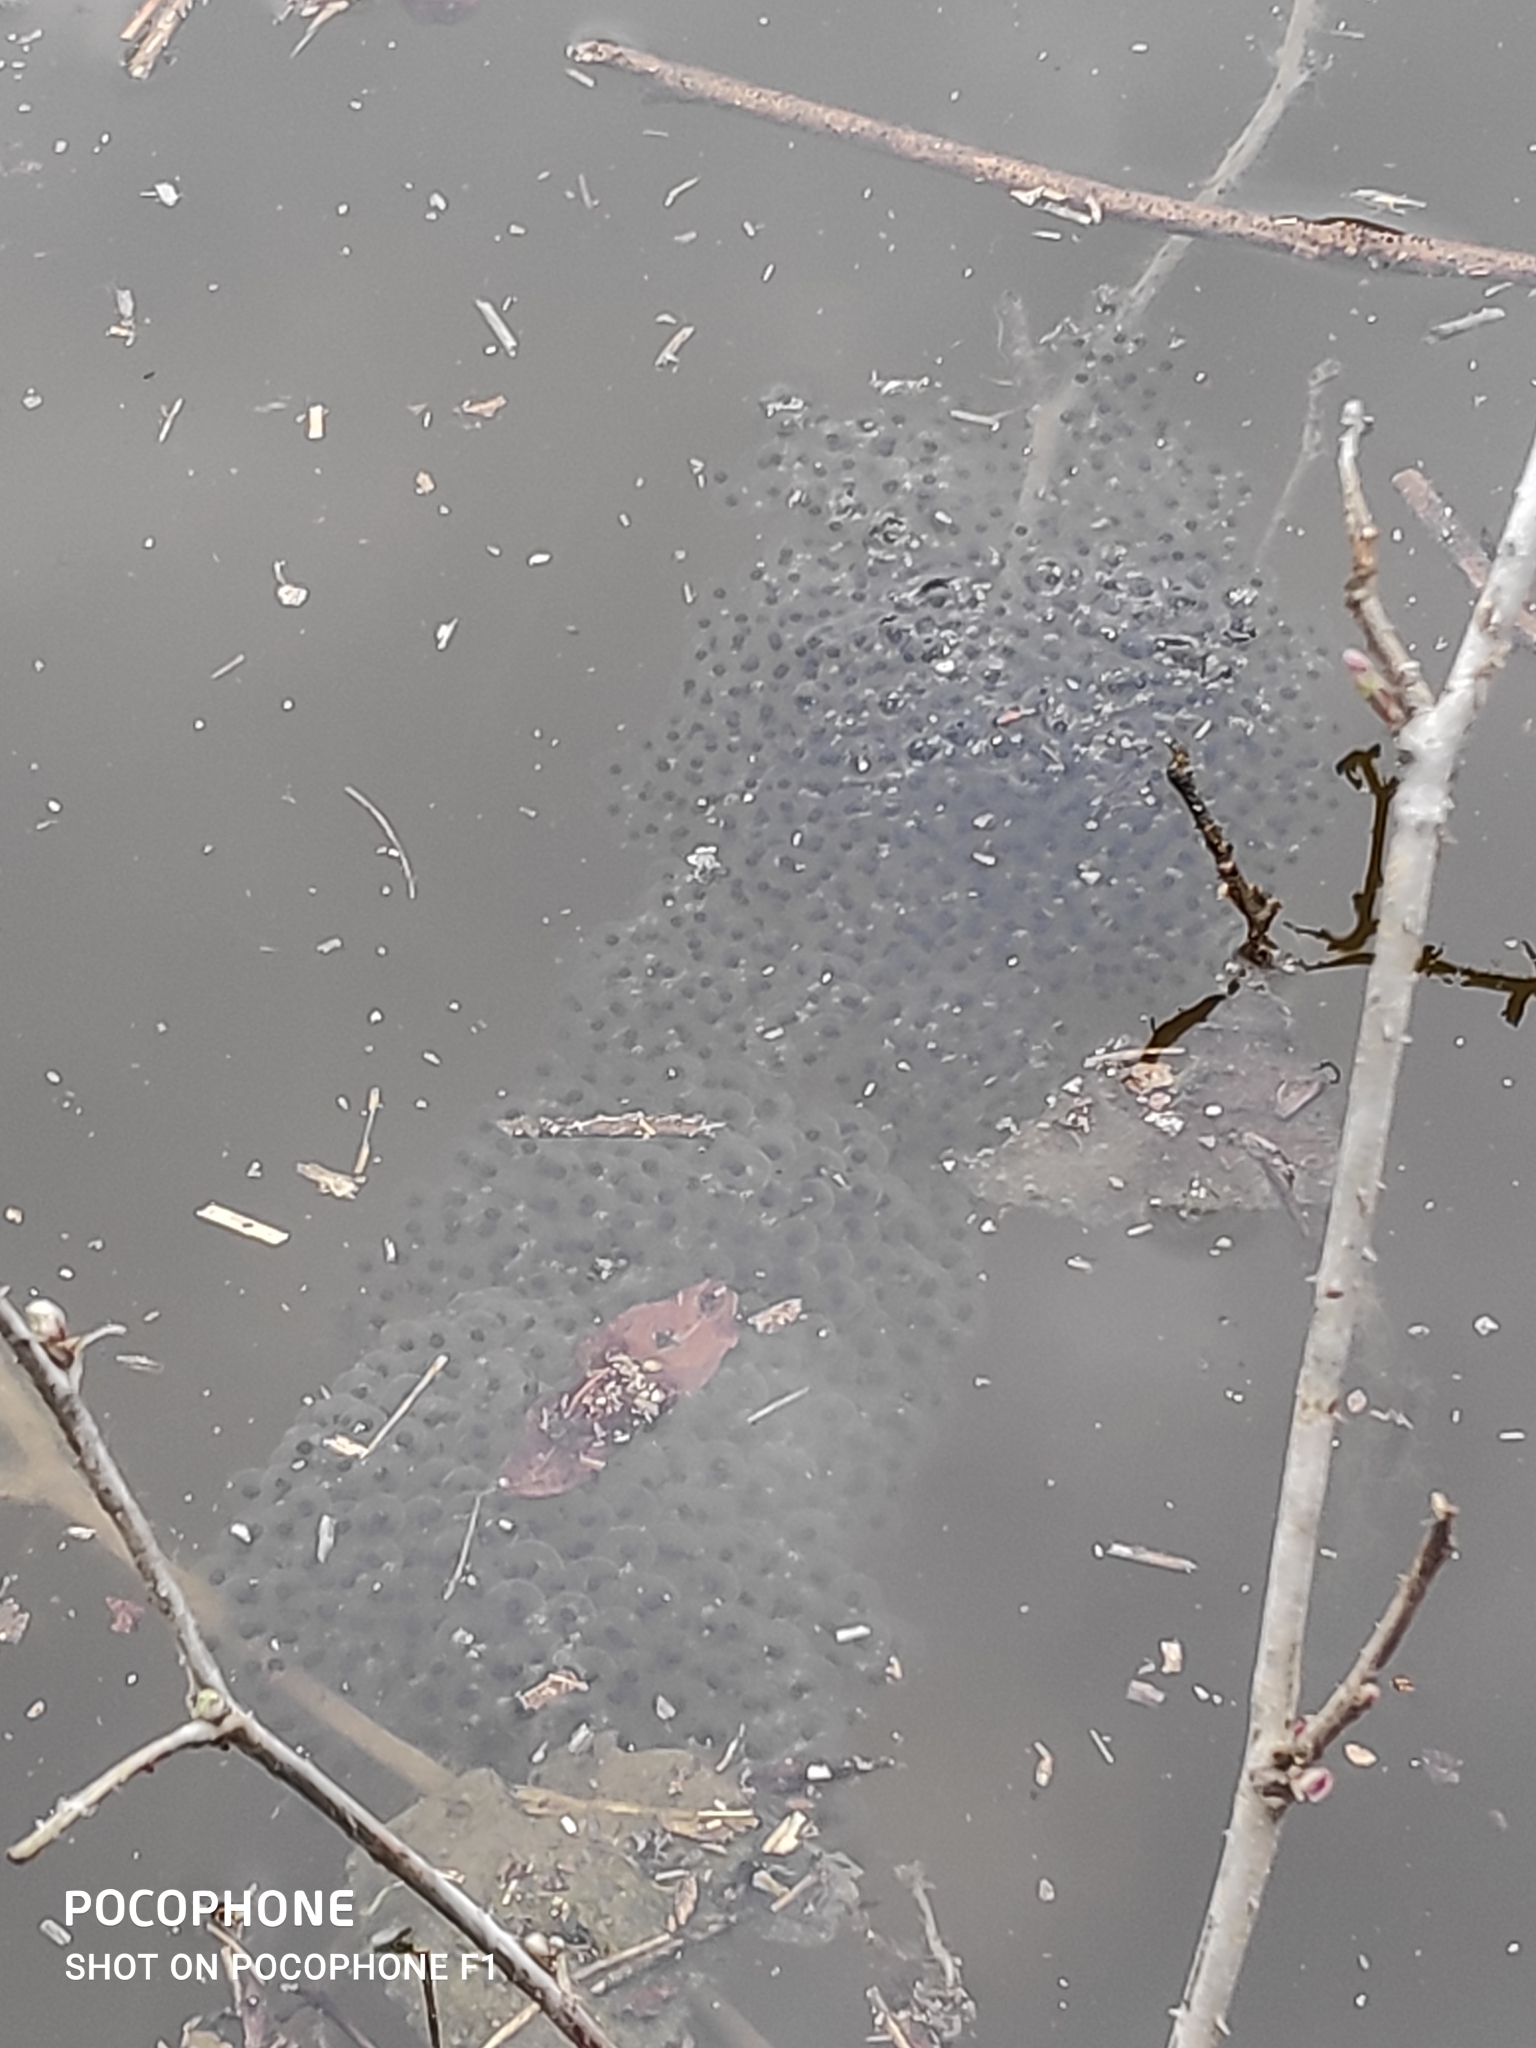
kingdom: Animalia
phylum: Chordata
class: Amphibia
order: Anura
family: Ranidae
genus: Rana
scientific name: Rana latastei
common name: Italian agile frog
